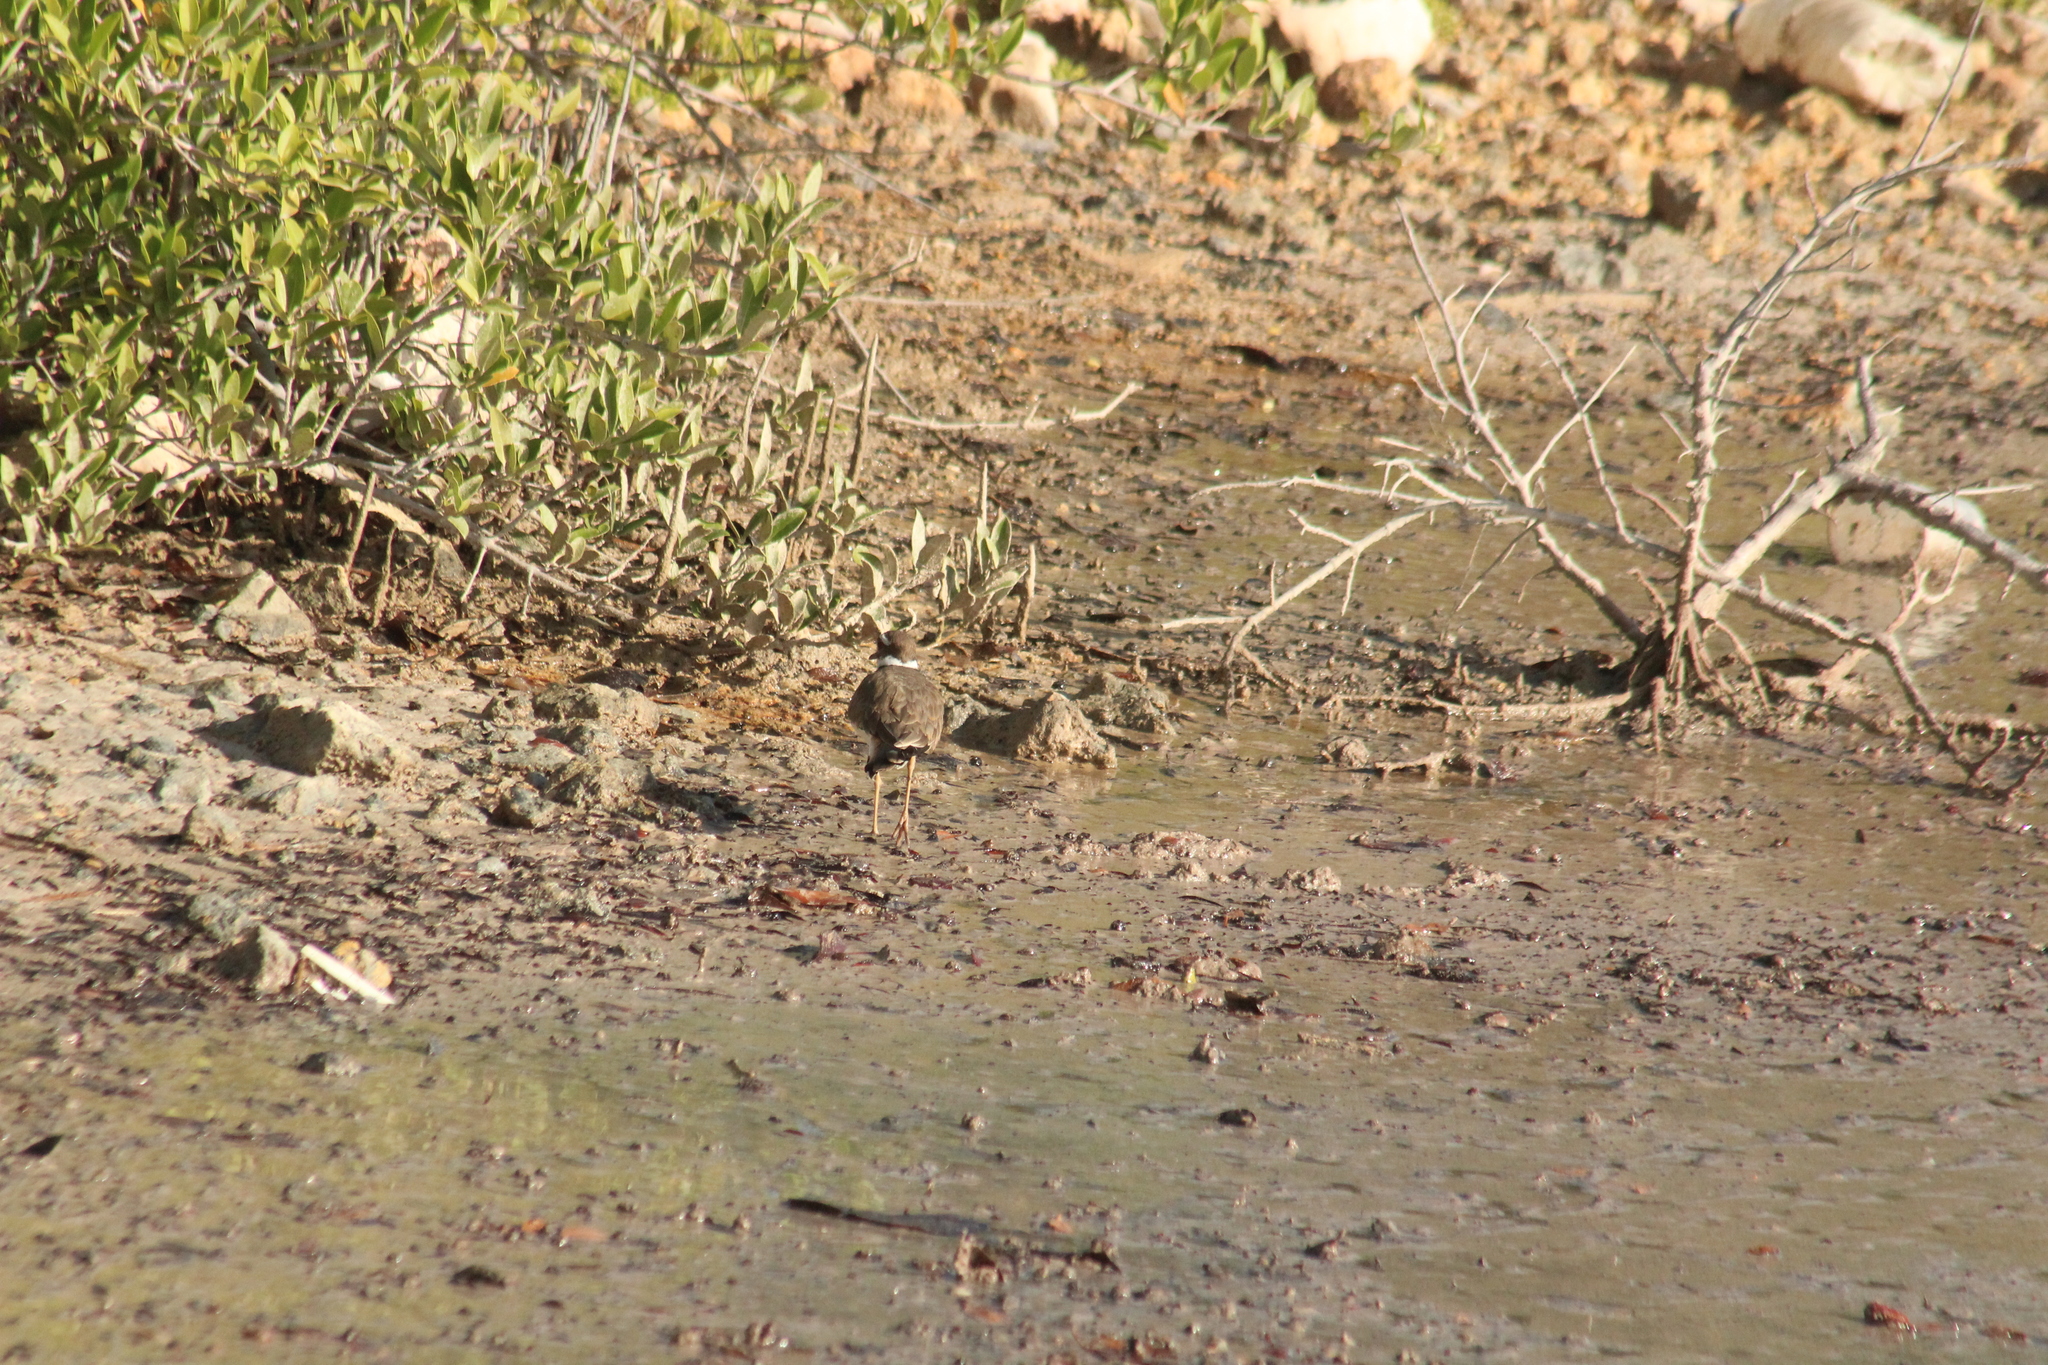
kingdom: Animalia
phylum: Chordata
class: Aves
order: Charadriiformes
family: Charadriidae
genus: Charadrius
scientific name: Charadrius vociferus
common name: Killdeer
